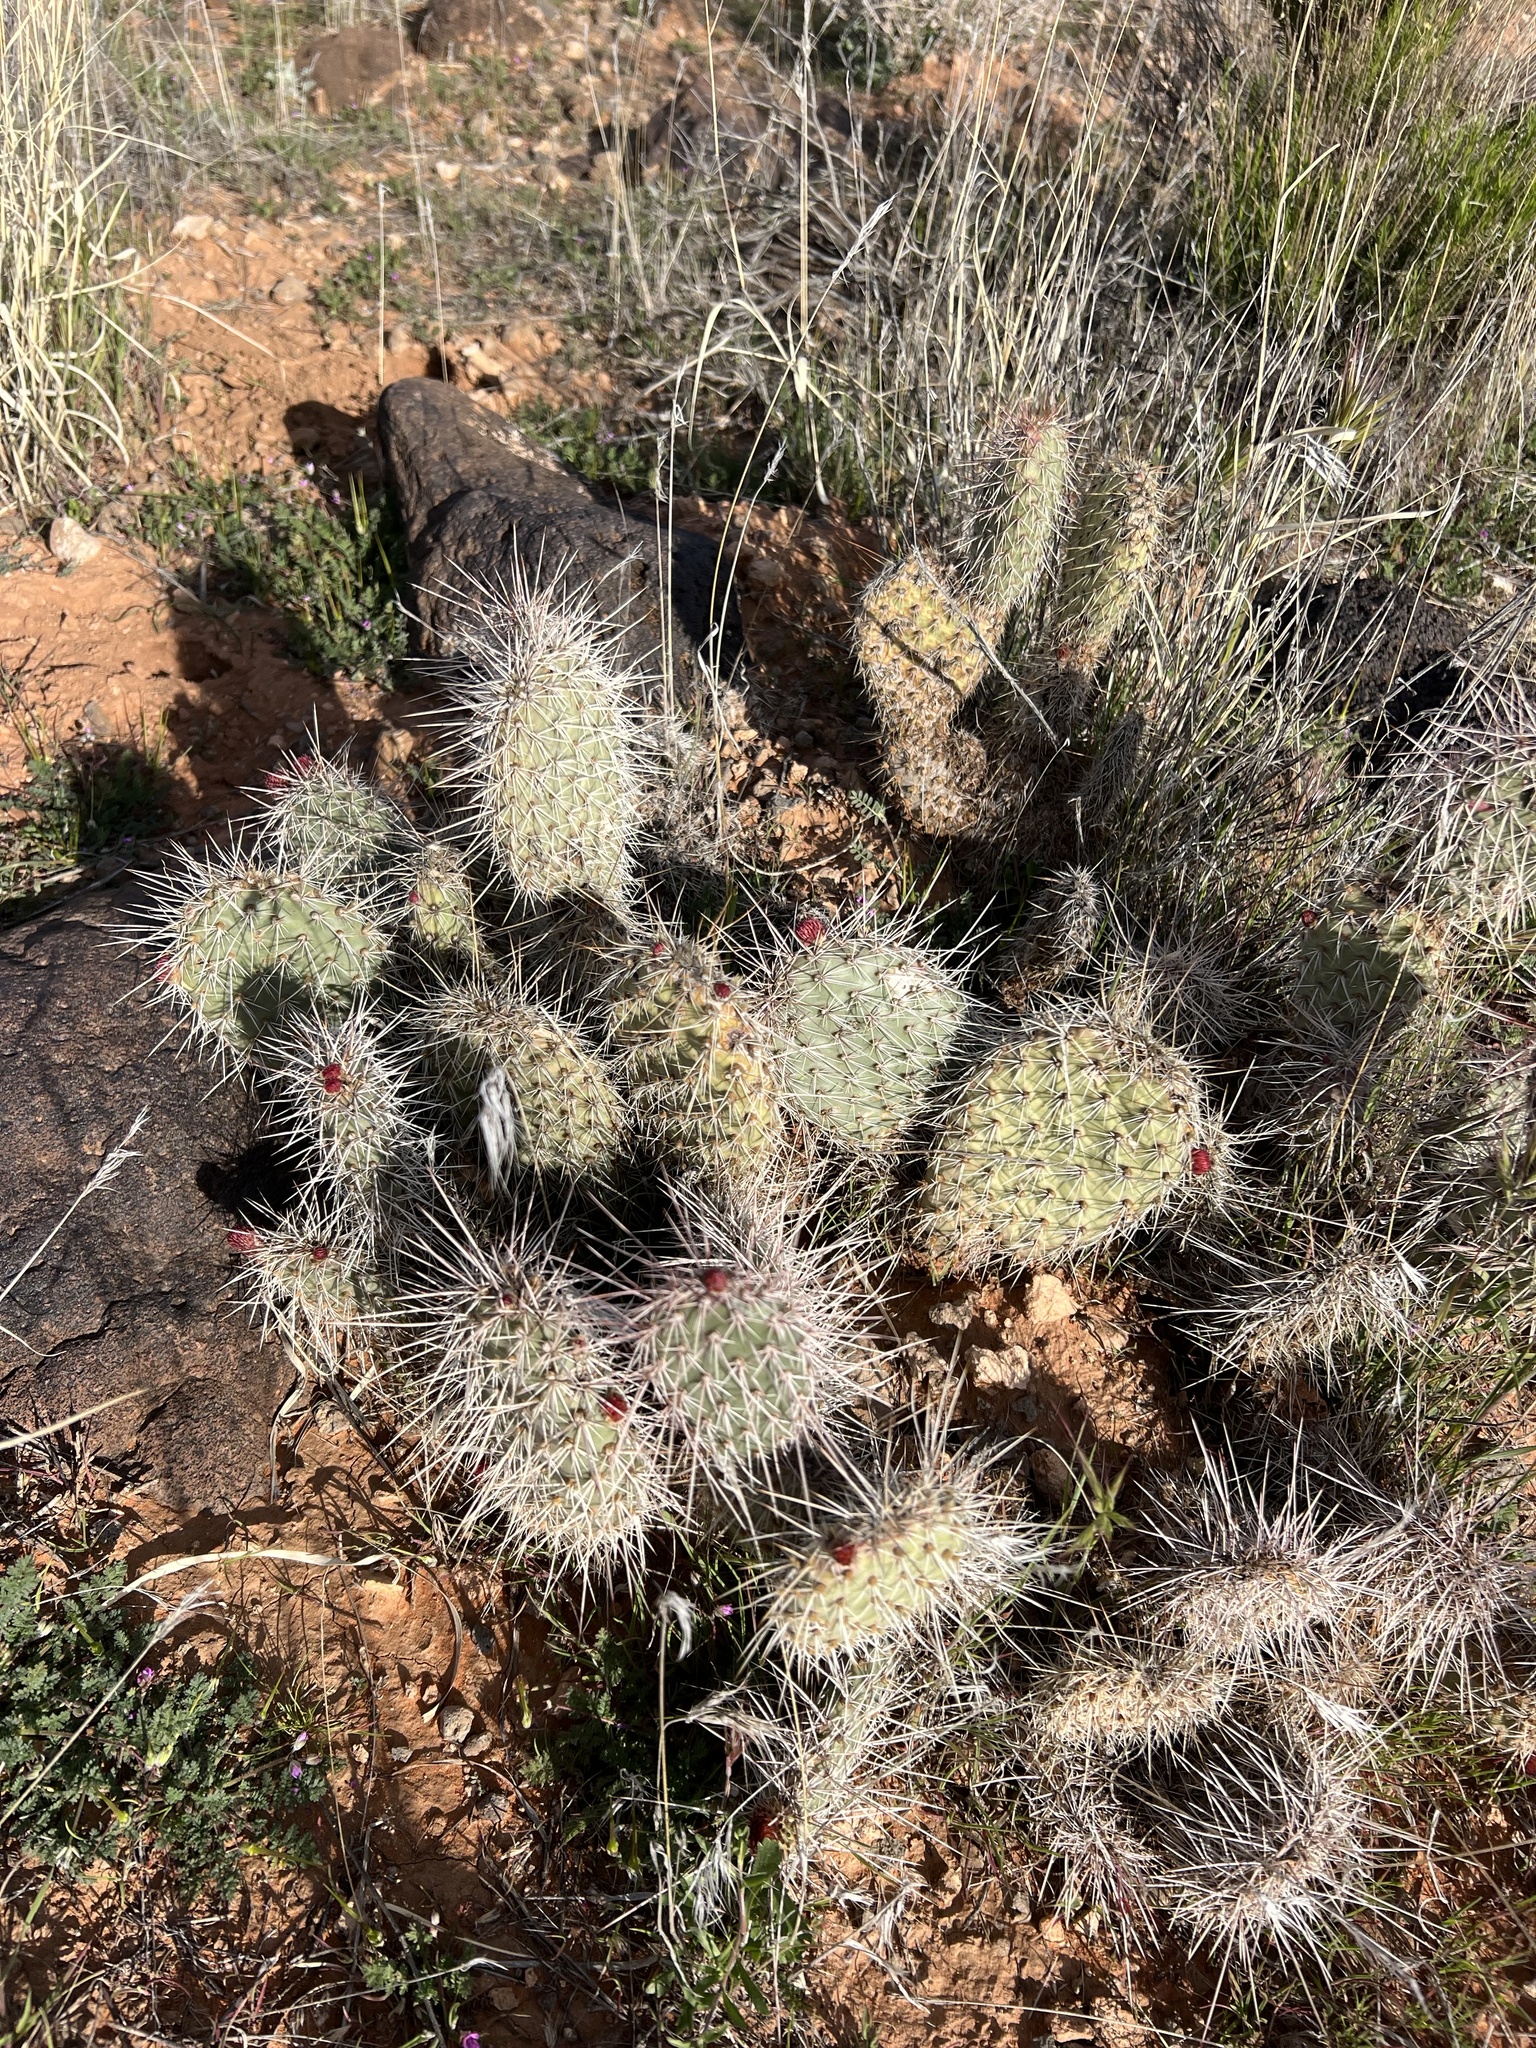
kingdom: Plantae
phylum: Tracheophyta
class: Magnoliopsida
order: Caryophyllales
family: Cactaceae
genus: Opuntia
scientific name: Opuntia polyacantha
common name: Plains prickly-pear
